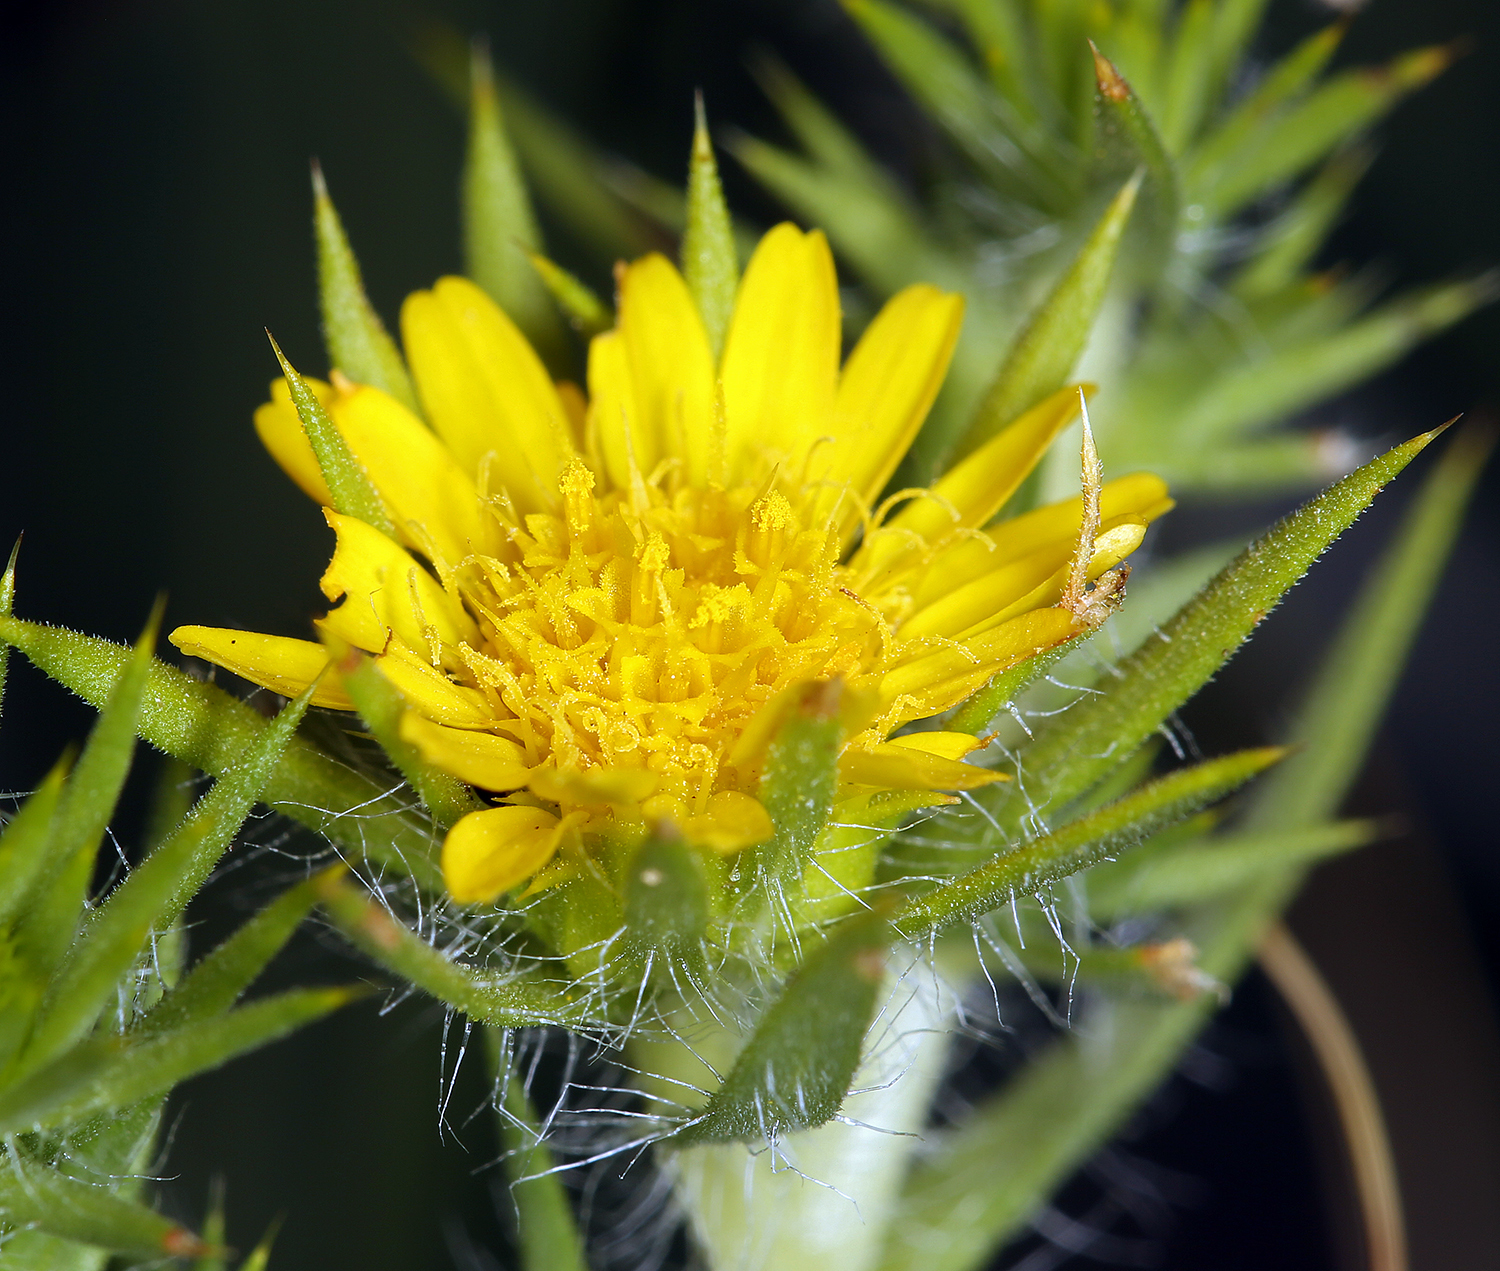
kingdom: Plantae
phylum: Tracheophyta
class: Magnoliopsida
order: Asterales
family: Asteraceae
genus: Centromadia
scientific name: Centromadia pungens
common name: Common spikeweed
